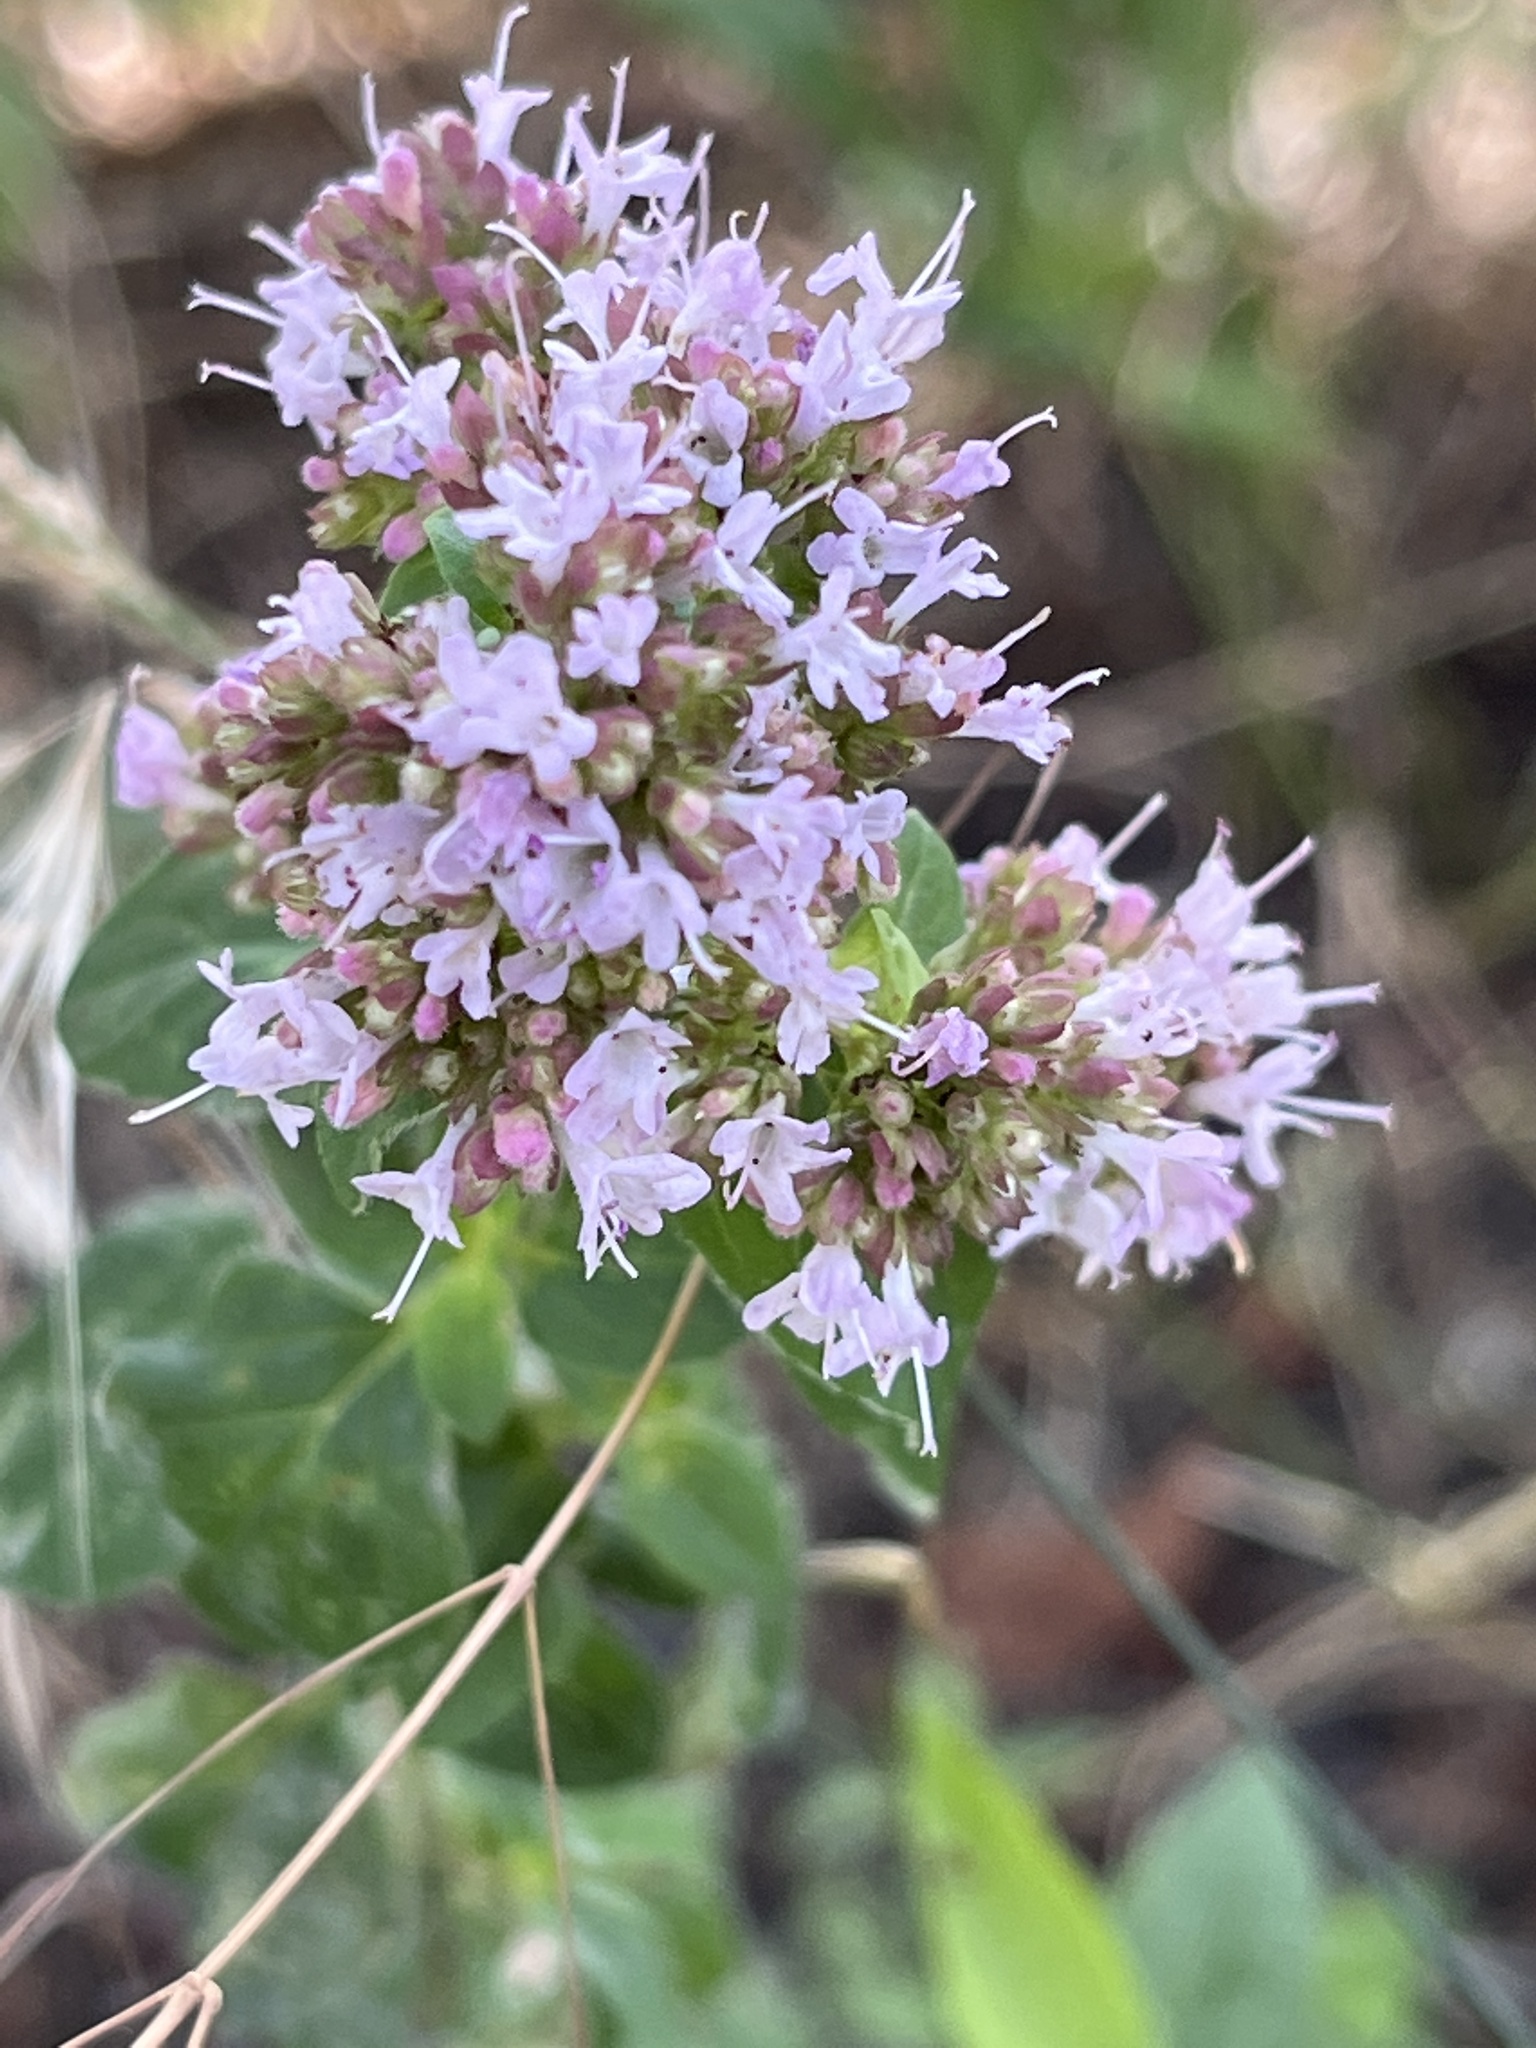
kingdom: Plantae
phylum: Tracheophyta
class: Magnoliopsida
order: Lamiales
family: Lamiaceae
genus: Origanum
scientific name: Origanum vulgare
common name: Wild marjoram
